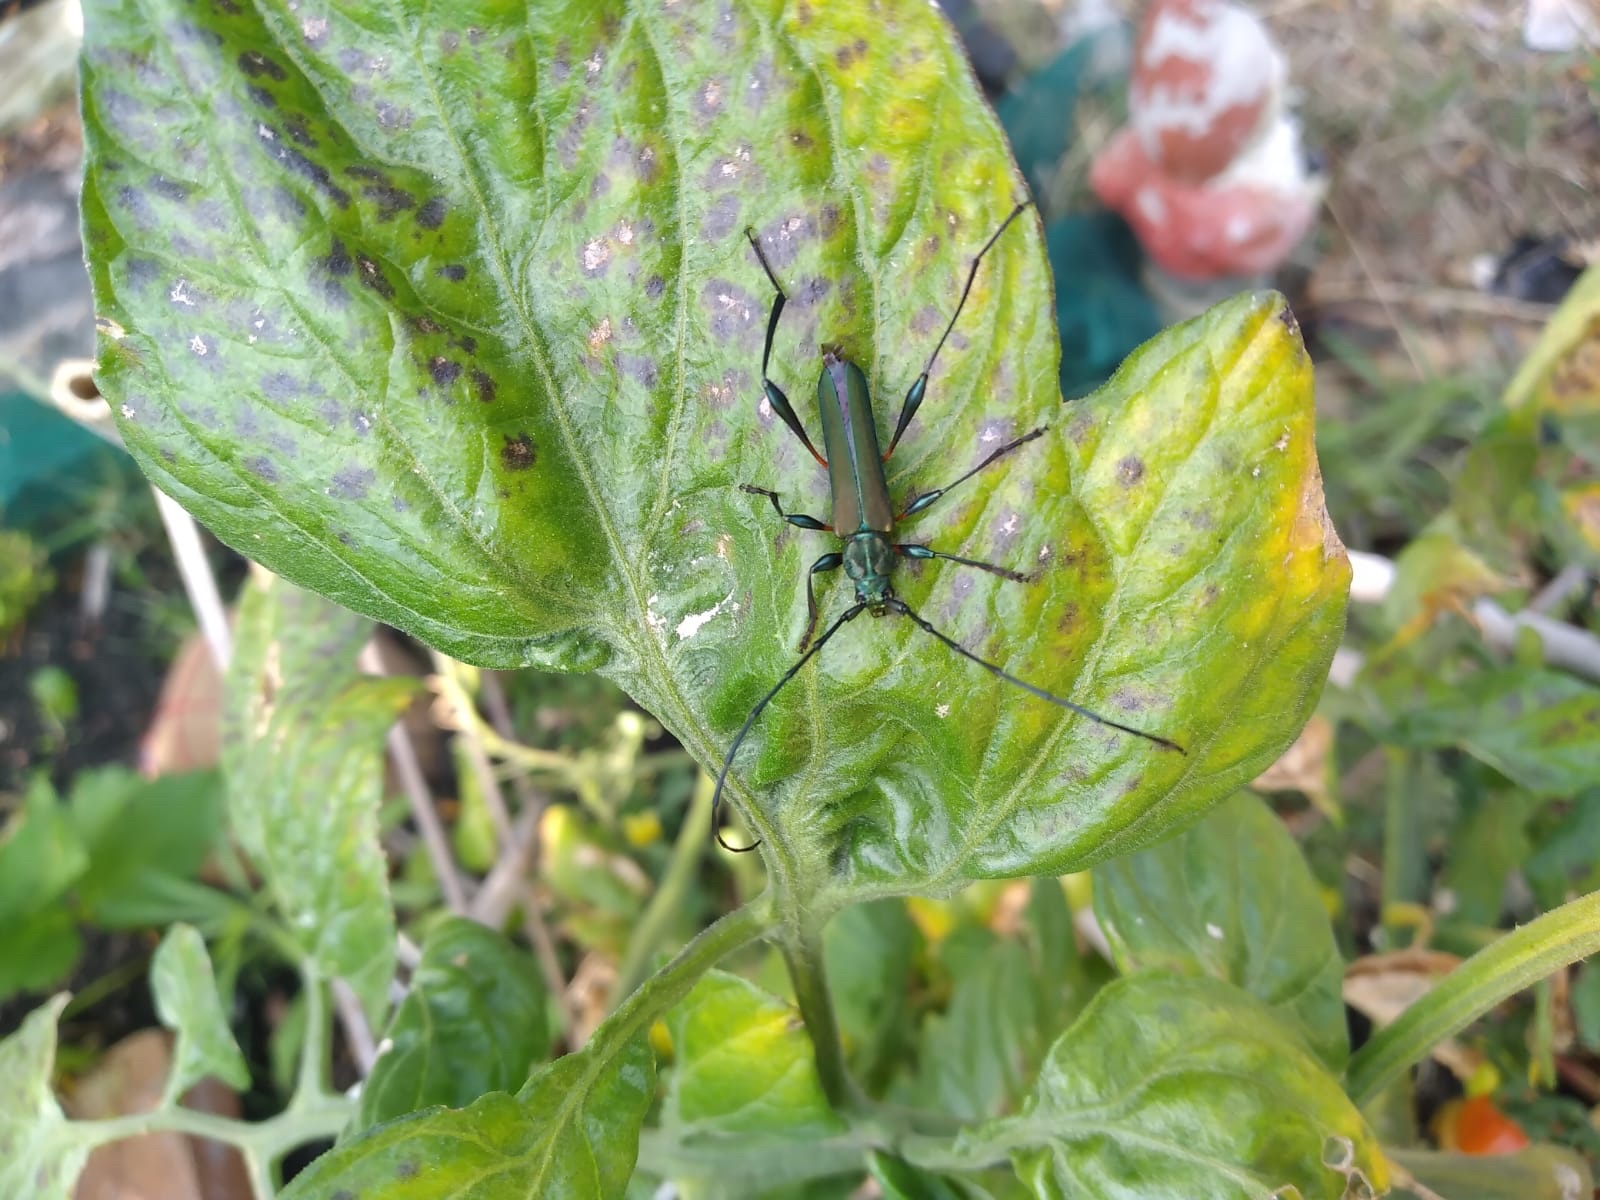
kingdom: Animalia
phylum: Arthropoda
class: Insecta
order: Coleoptera
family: Cerambycidae
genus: Litopus
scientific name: Litopus latipes
